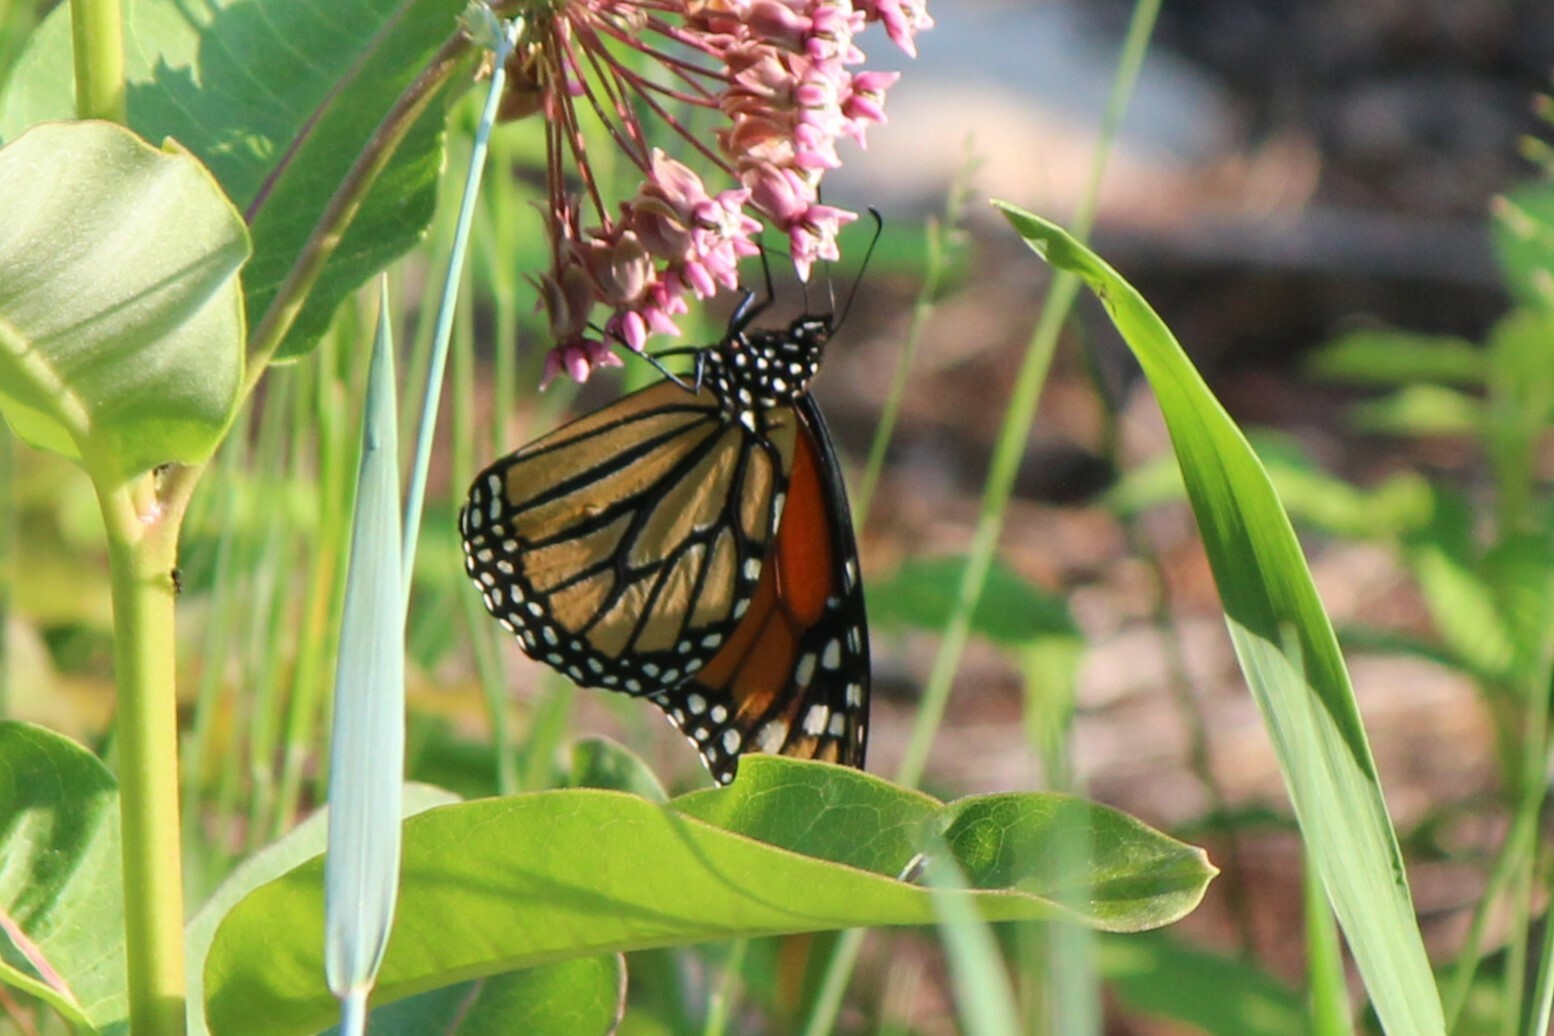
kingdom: Animalia
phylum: Arthropoda
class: Insecta
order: Lepidoptera
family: Nymphalidae
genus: Danaus
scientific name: Danaus plexippus
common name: Monarch
